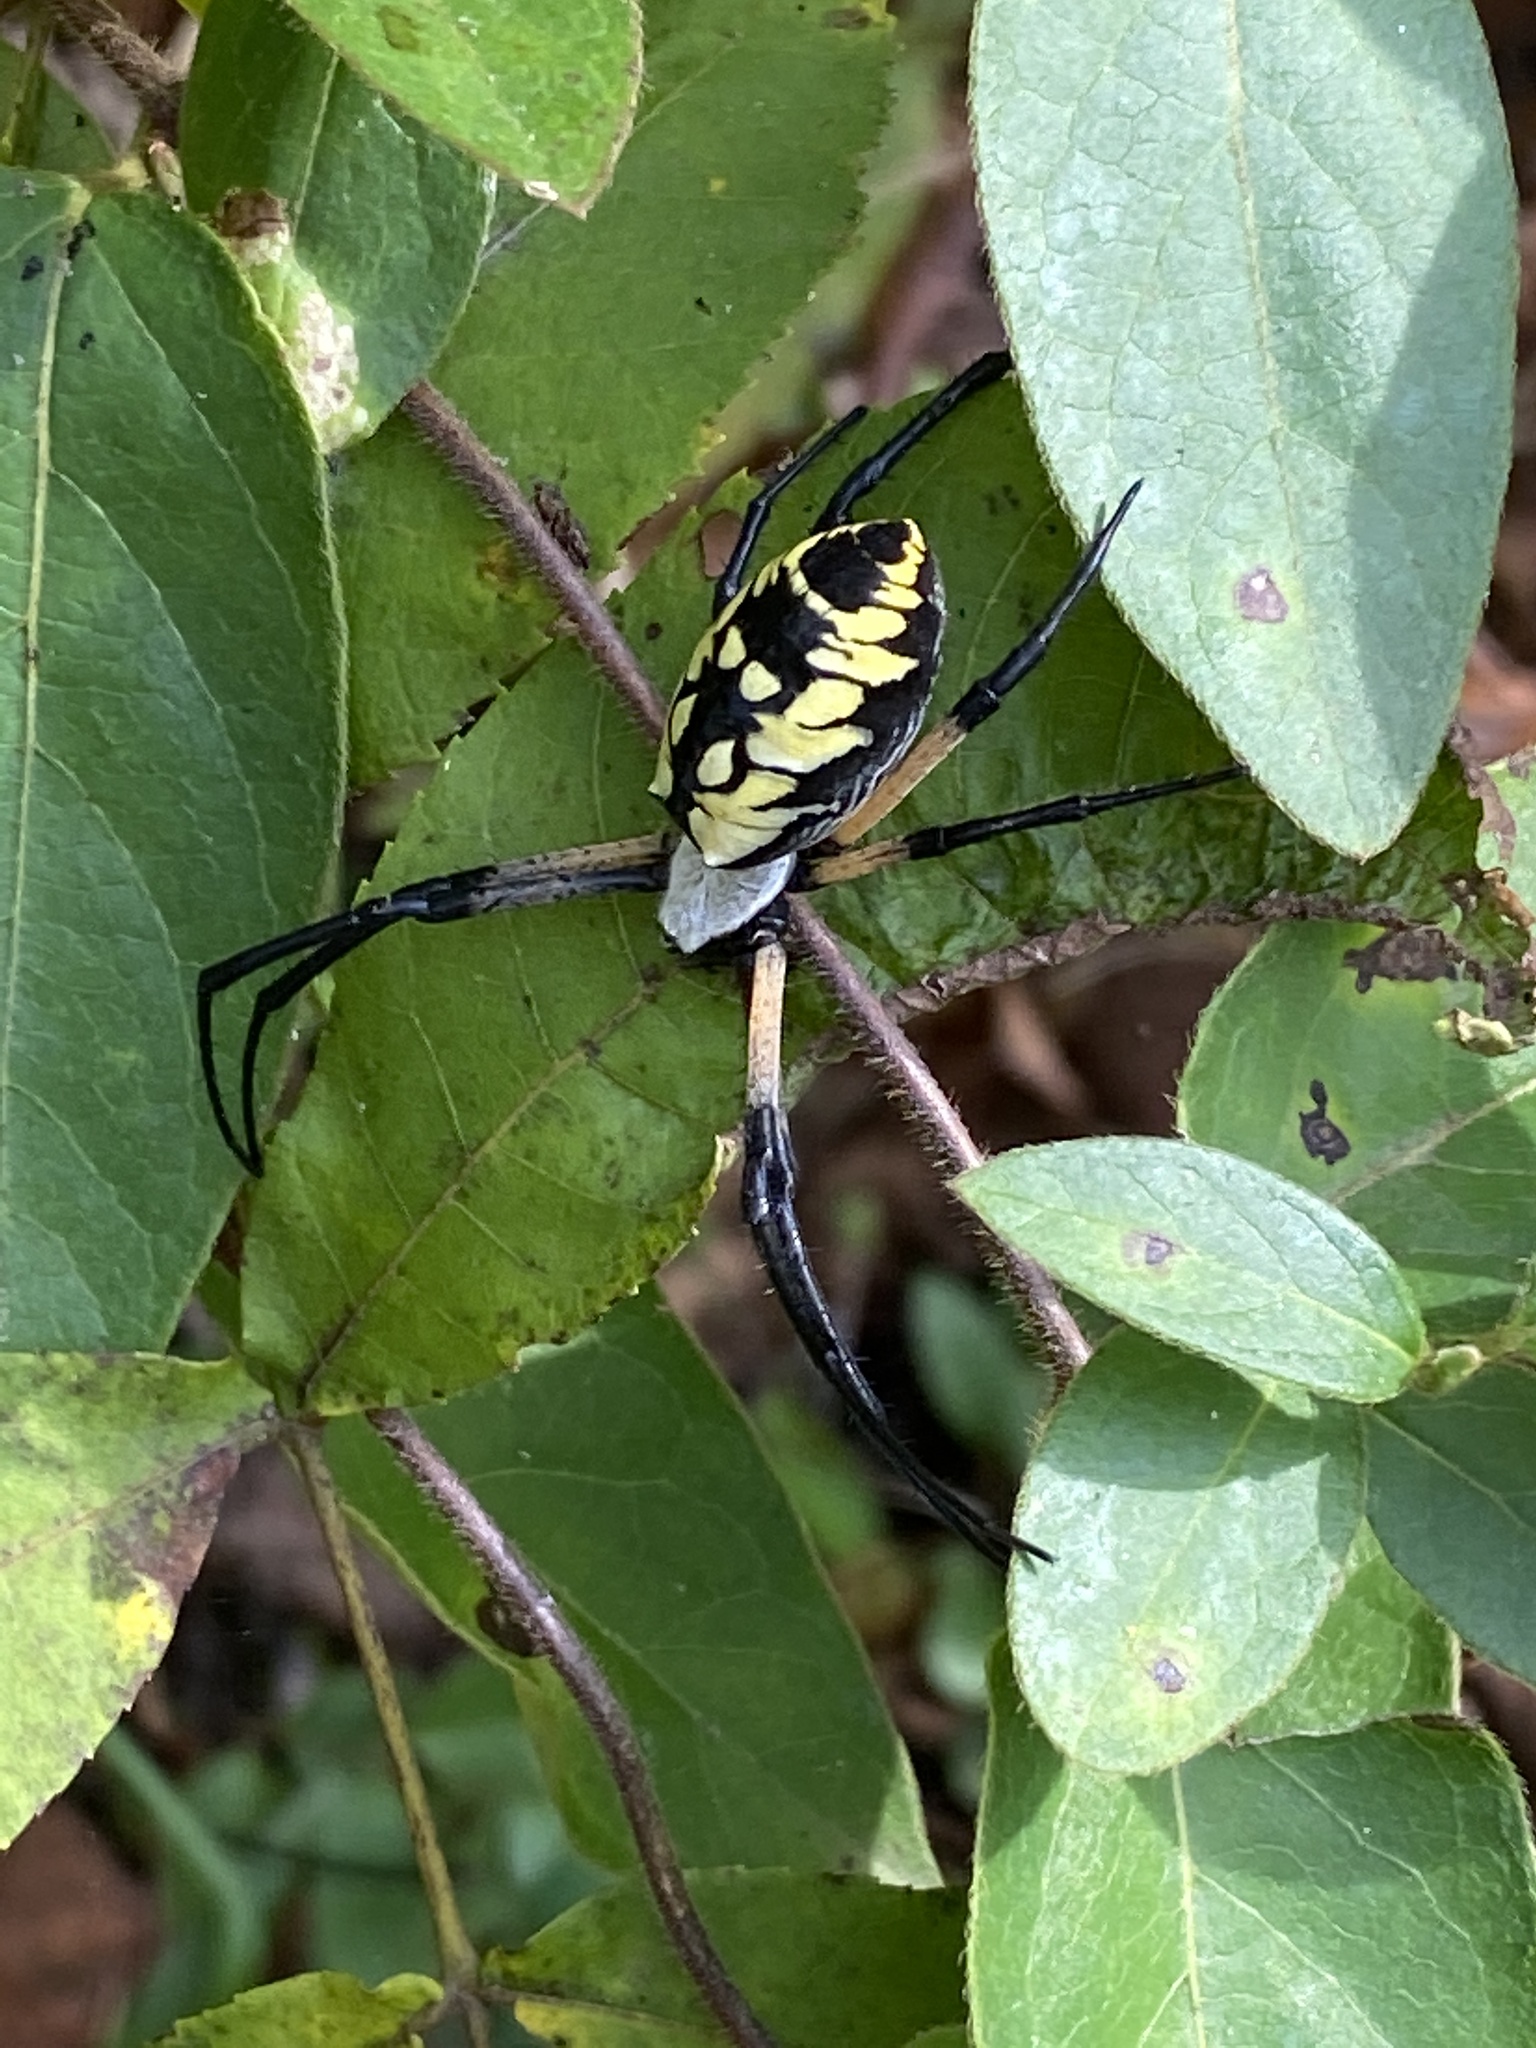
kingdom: Animalia
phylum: Arthropoda
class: Arachnida
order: Araneae
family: Araneidae
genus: Argiope
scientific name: Argiope aurantia
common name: Orb weavers
